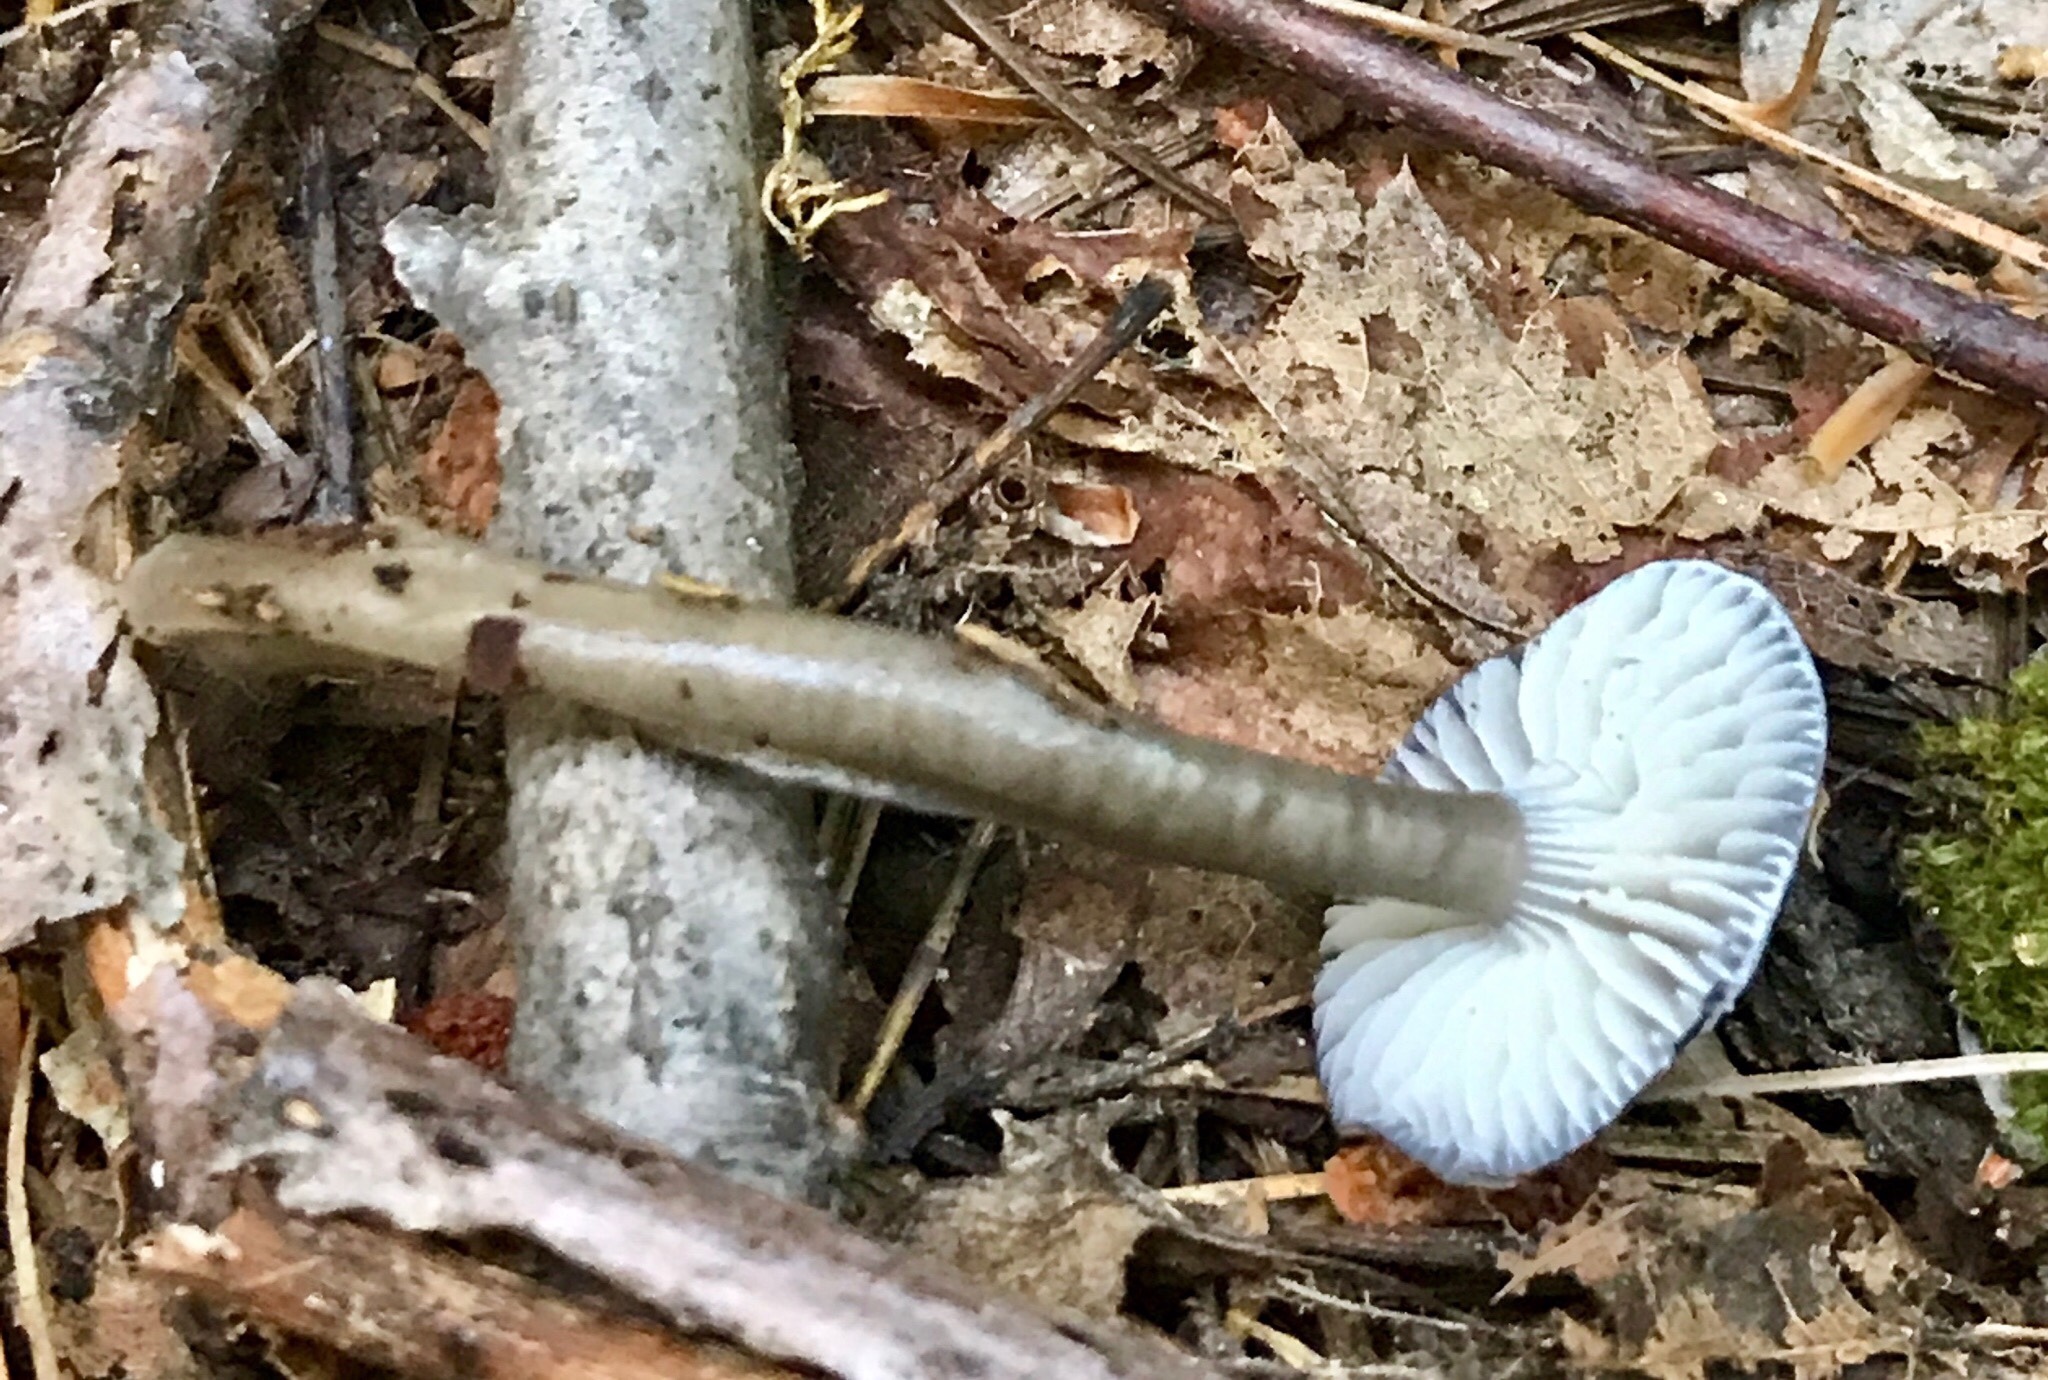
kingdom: Fungi
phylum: Basidiomycota
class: Agaricomycetes
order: Agaricales
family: Hygrophoraceae
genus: Gliophorus
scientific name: Gliophorus irrigatus
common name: Slimy waxcap
